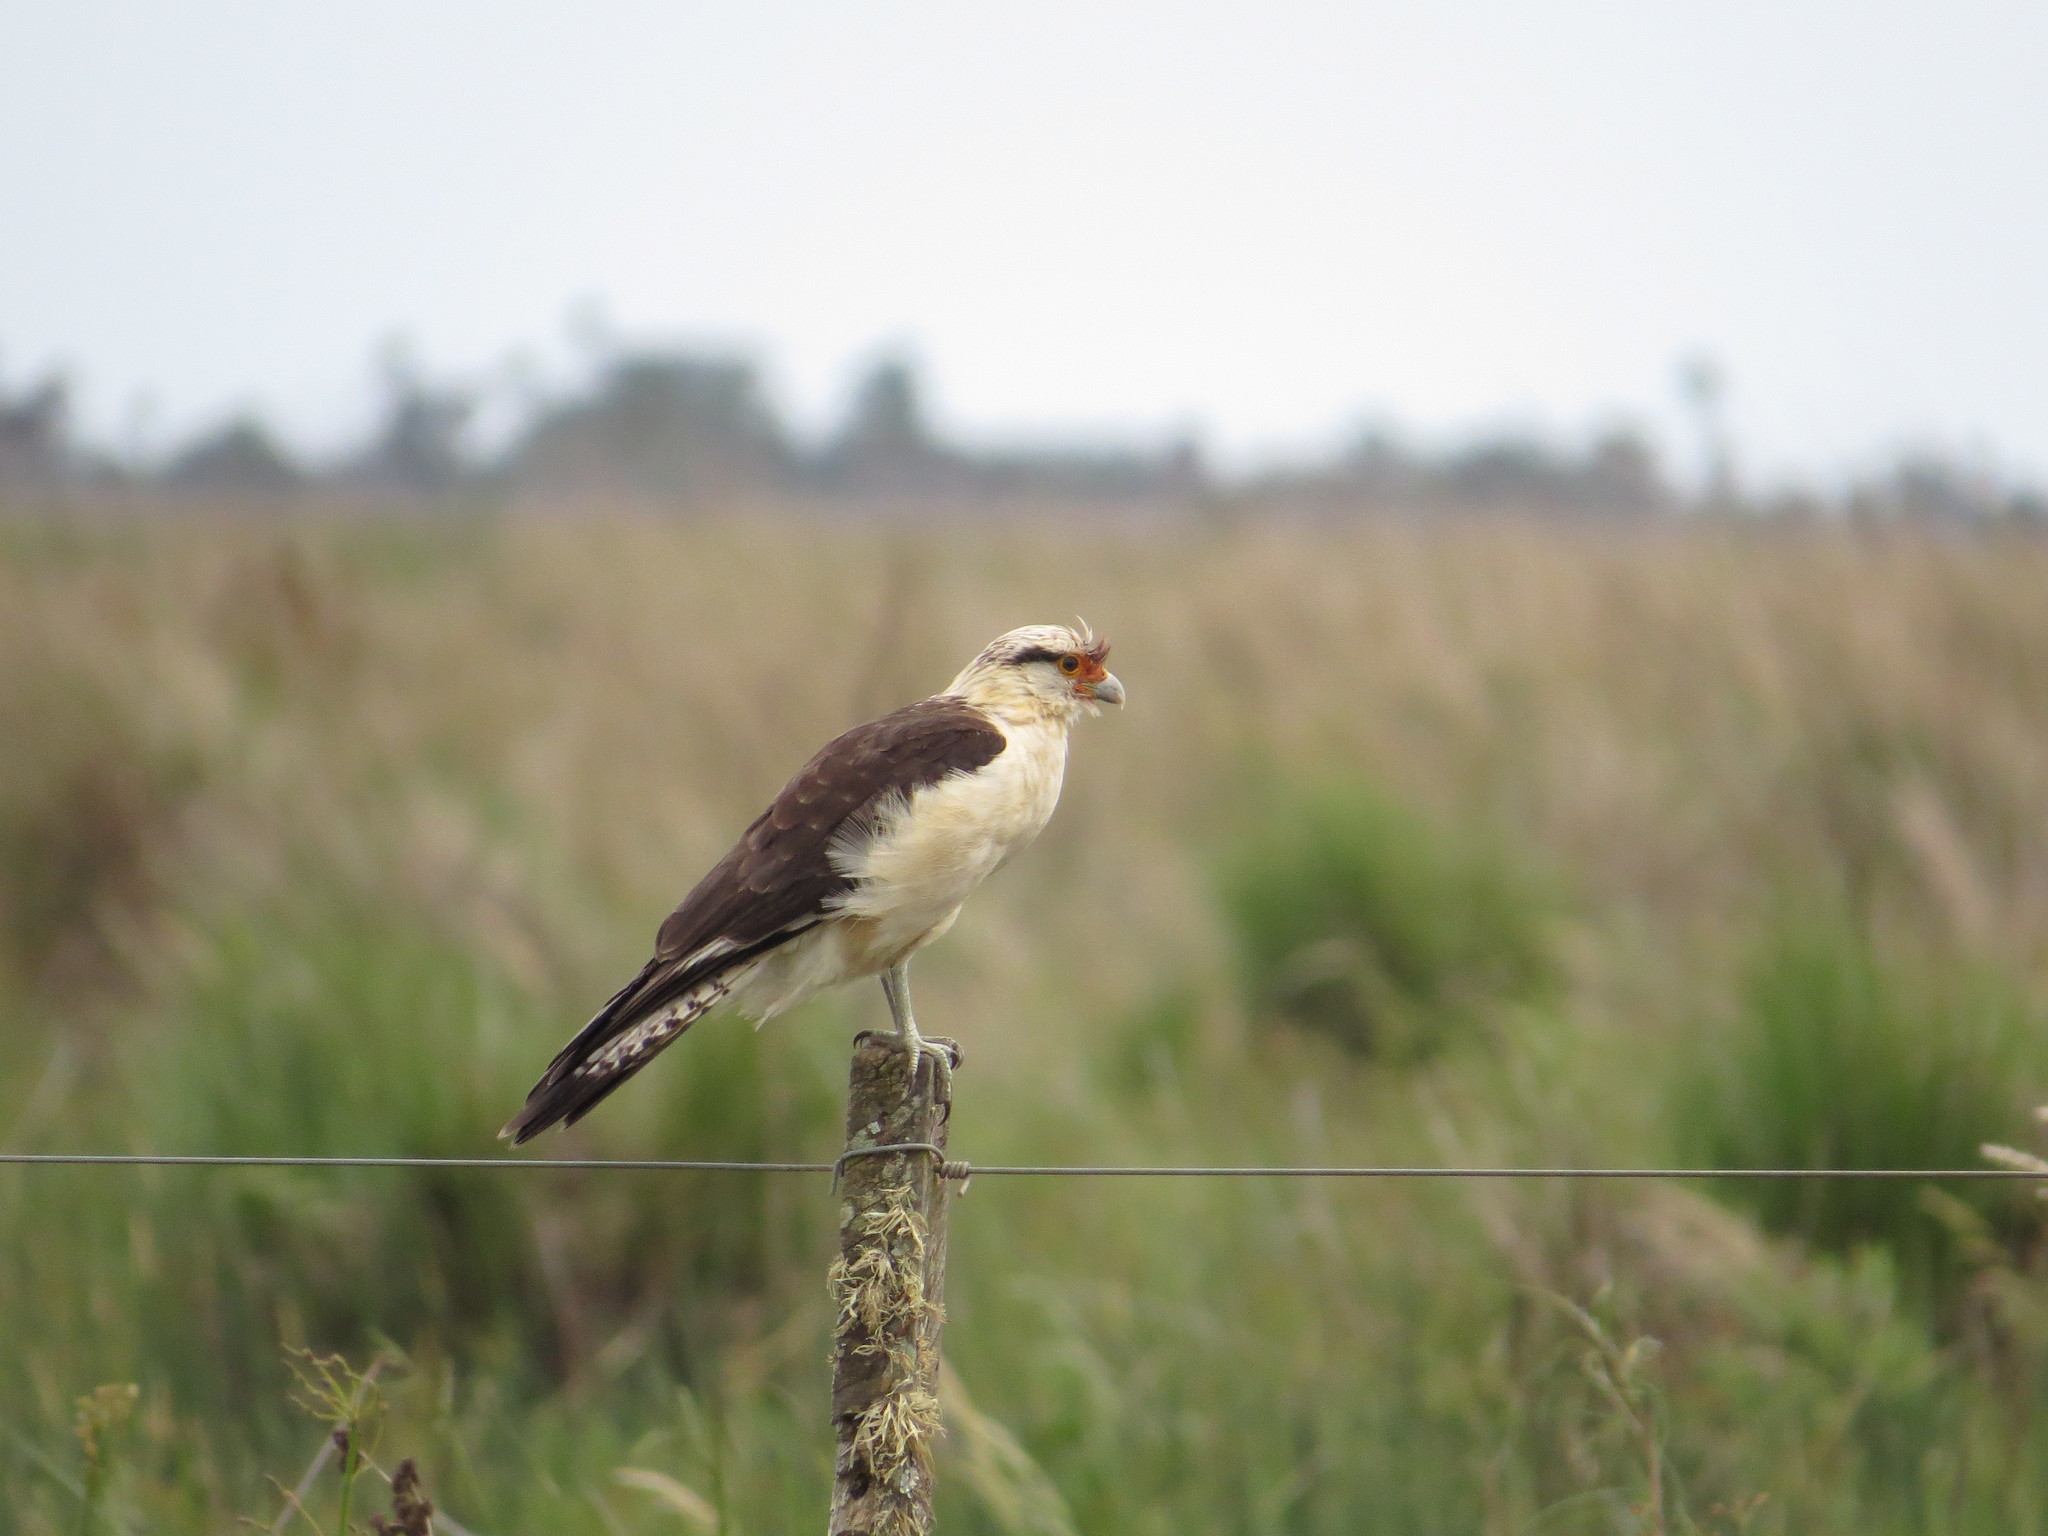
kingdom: Animalia
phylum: Chordata
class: Aves
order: Falconiformes
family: Falconidae
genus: Daptrius
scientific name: Daptrius
